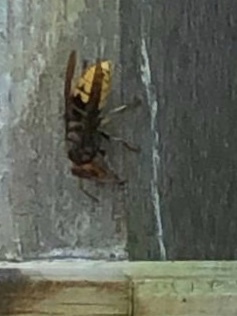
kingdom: Animalia
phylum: Arthropoda
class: Insecta
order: Hymenoptera
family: Vespidae
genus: Vespa
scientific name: Vespa crabro
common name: Hornet
